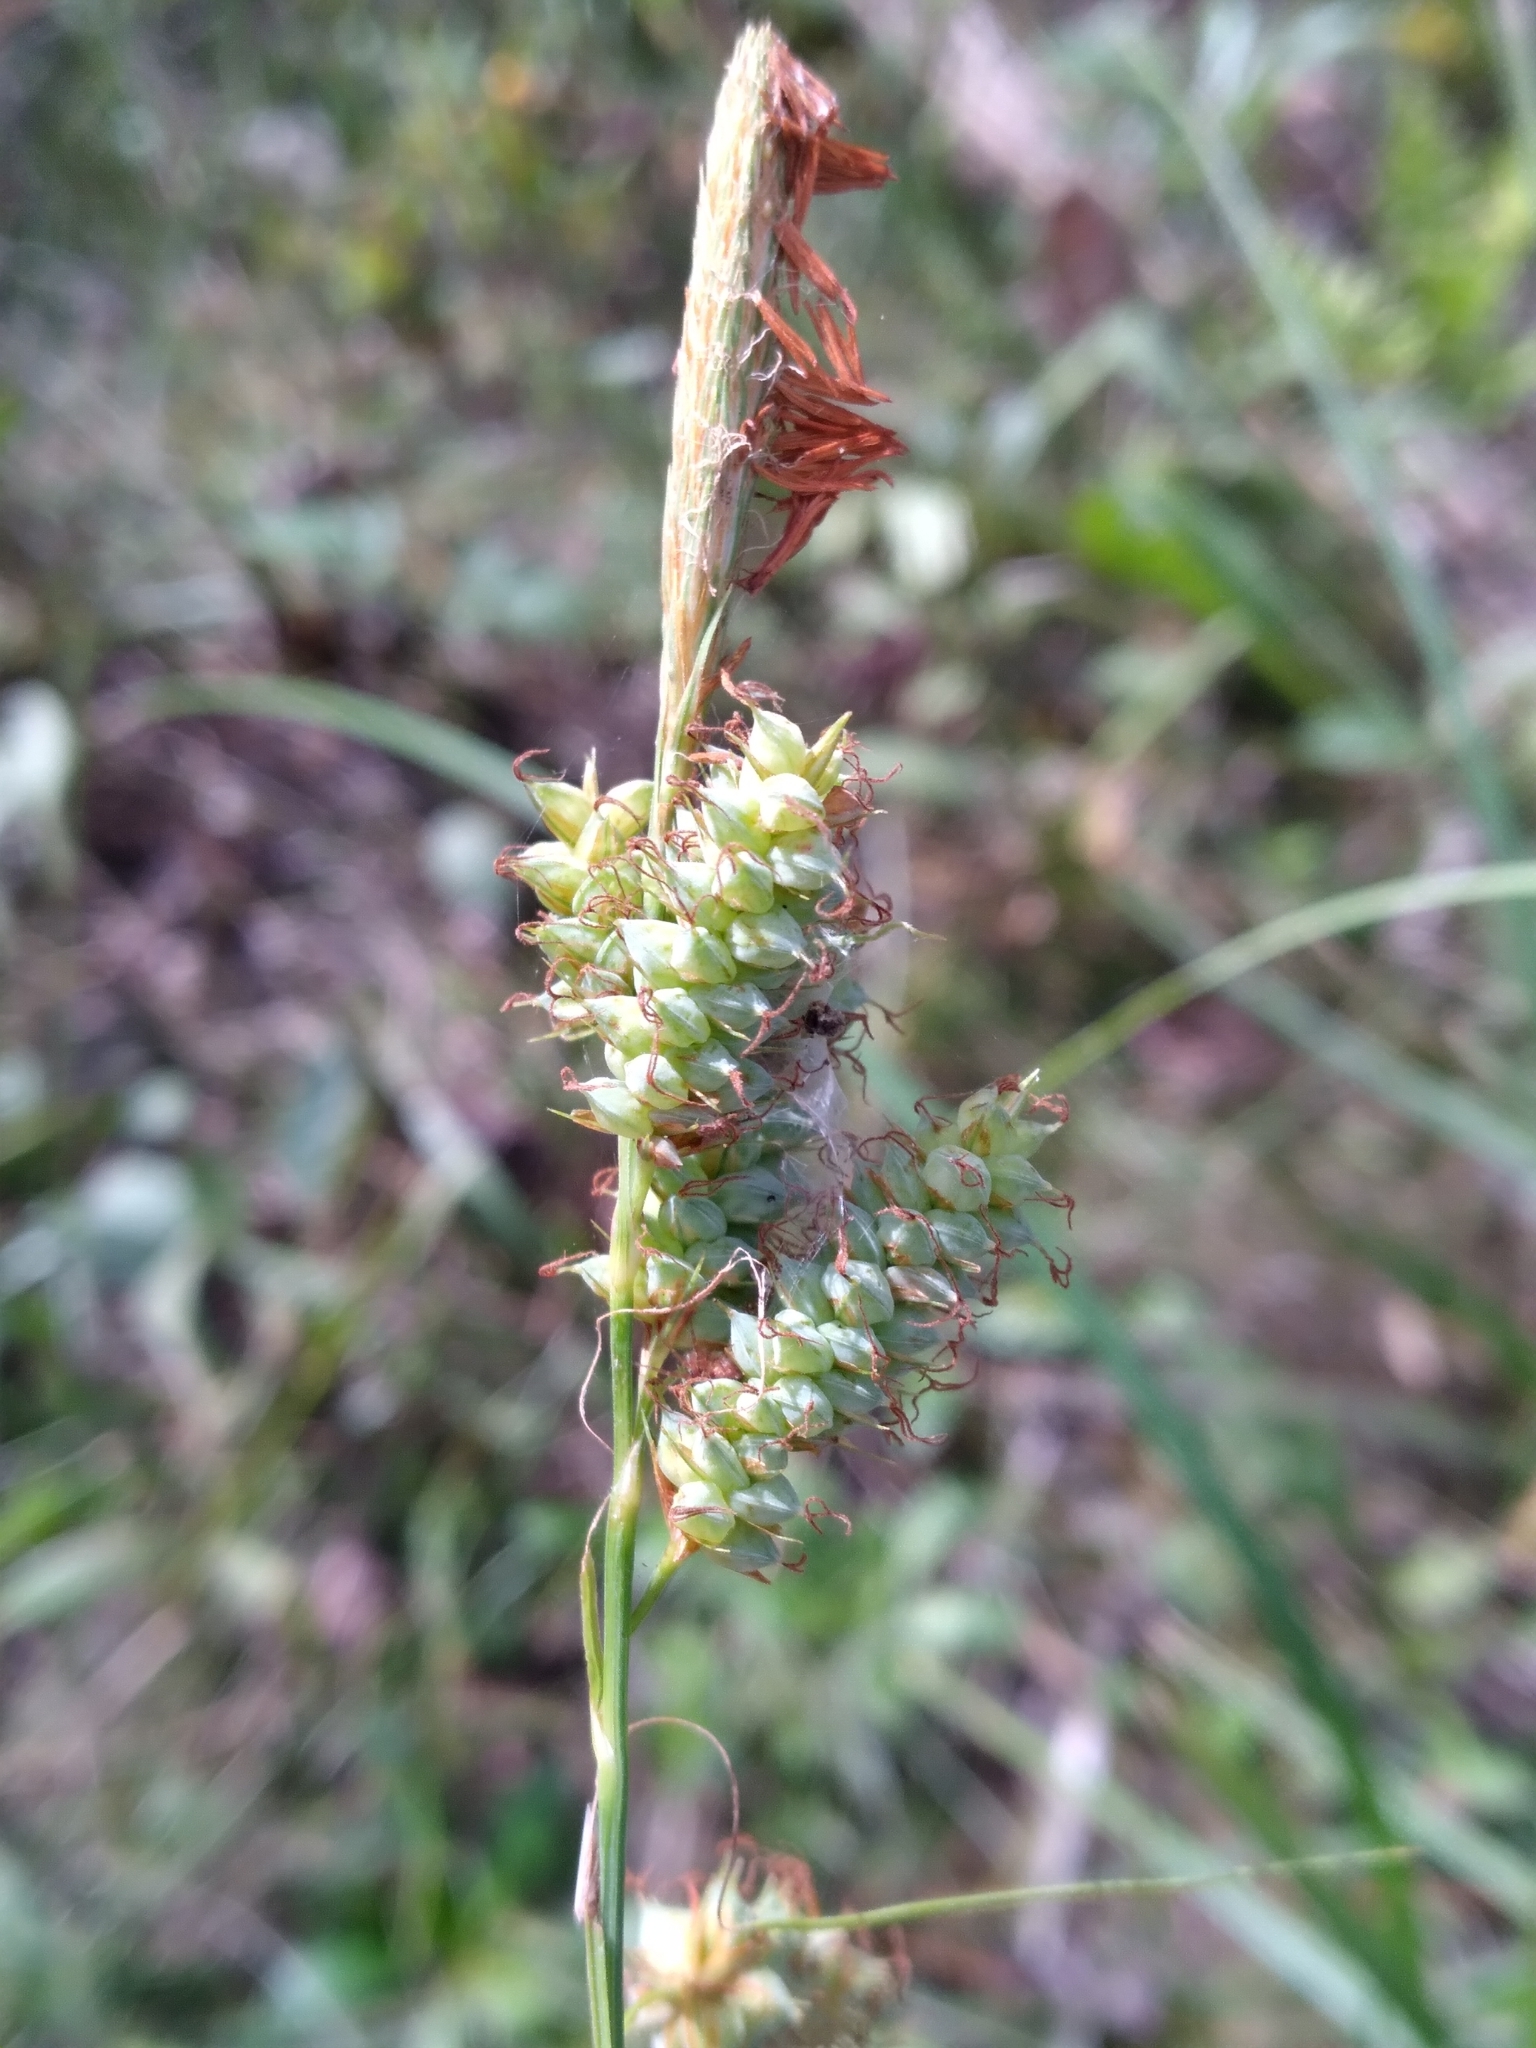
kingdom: Plantae
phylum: Tracheophyta
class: Liliopsida
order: Poales
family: Cyperaceae
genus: Carex
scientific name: Carex glaucescens
